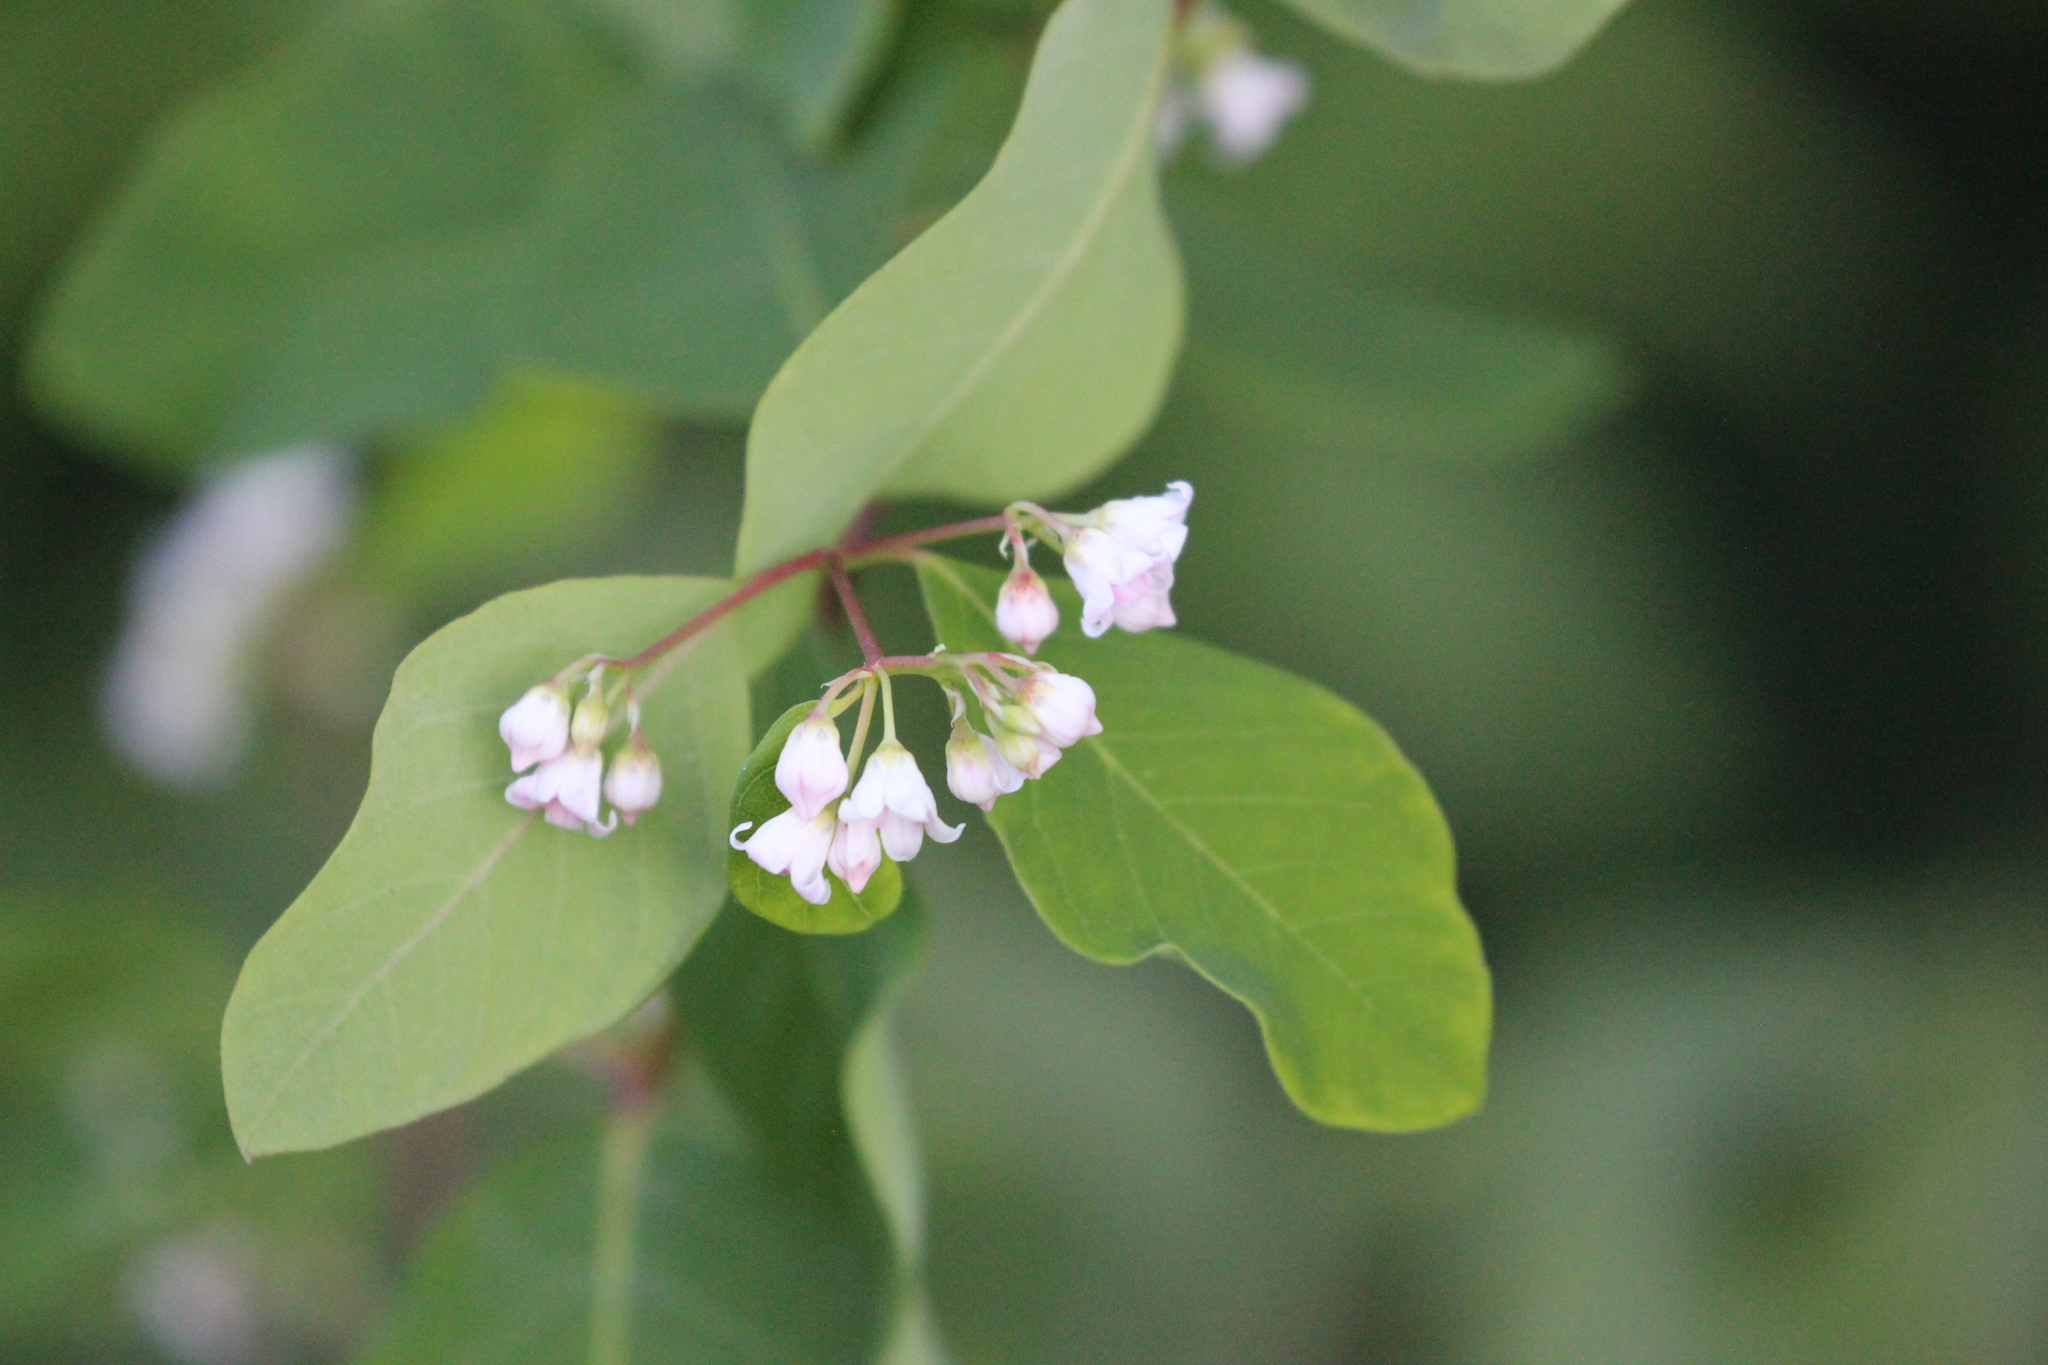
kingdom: Plantae
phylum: Tracheophyta
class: Magnoliopsida
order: Gentianales
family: Apocynaceae
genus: Apocynum
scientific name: Apocynum androsaemifolium
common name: Spreading dogbane
